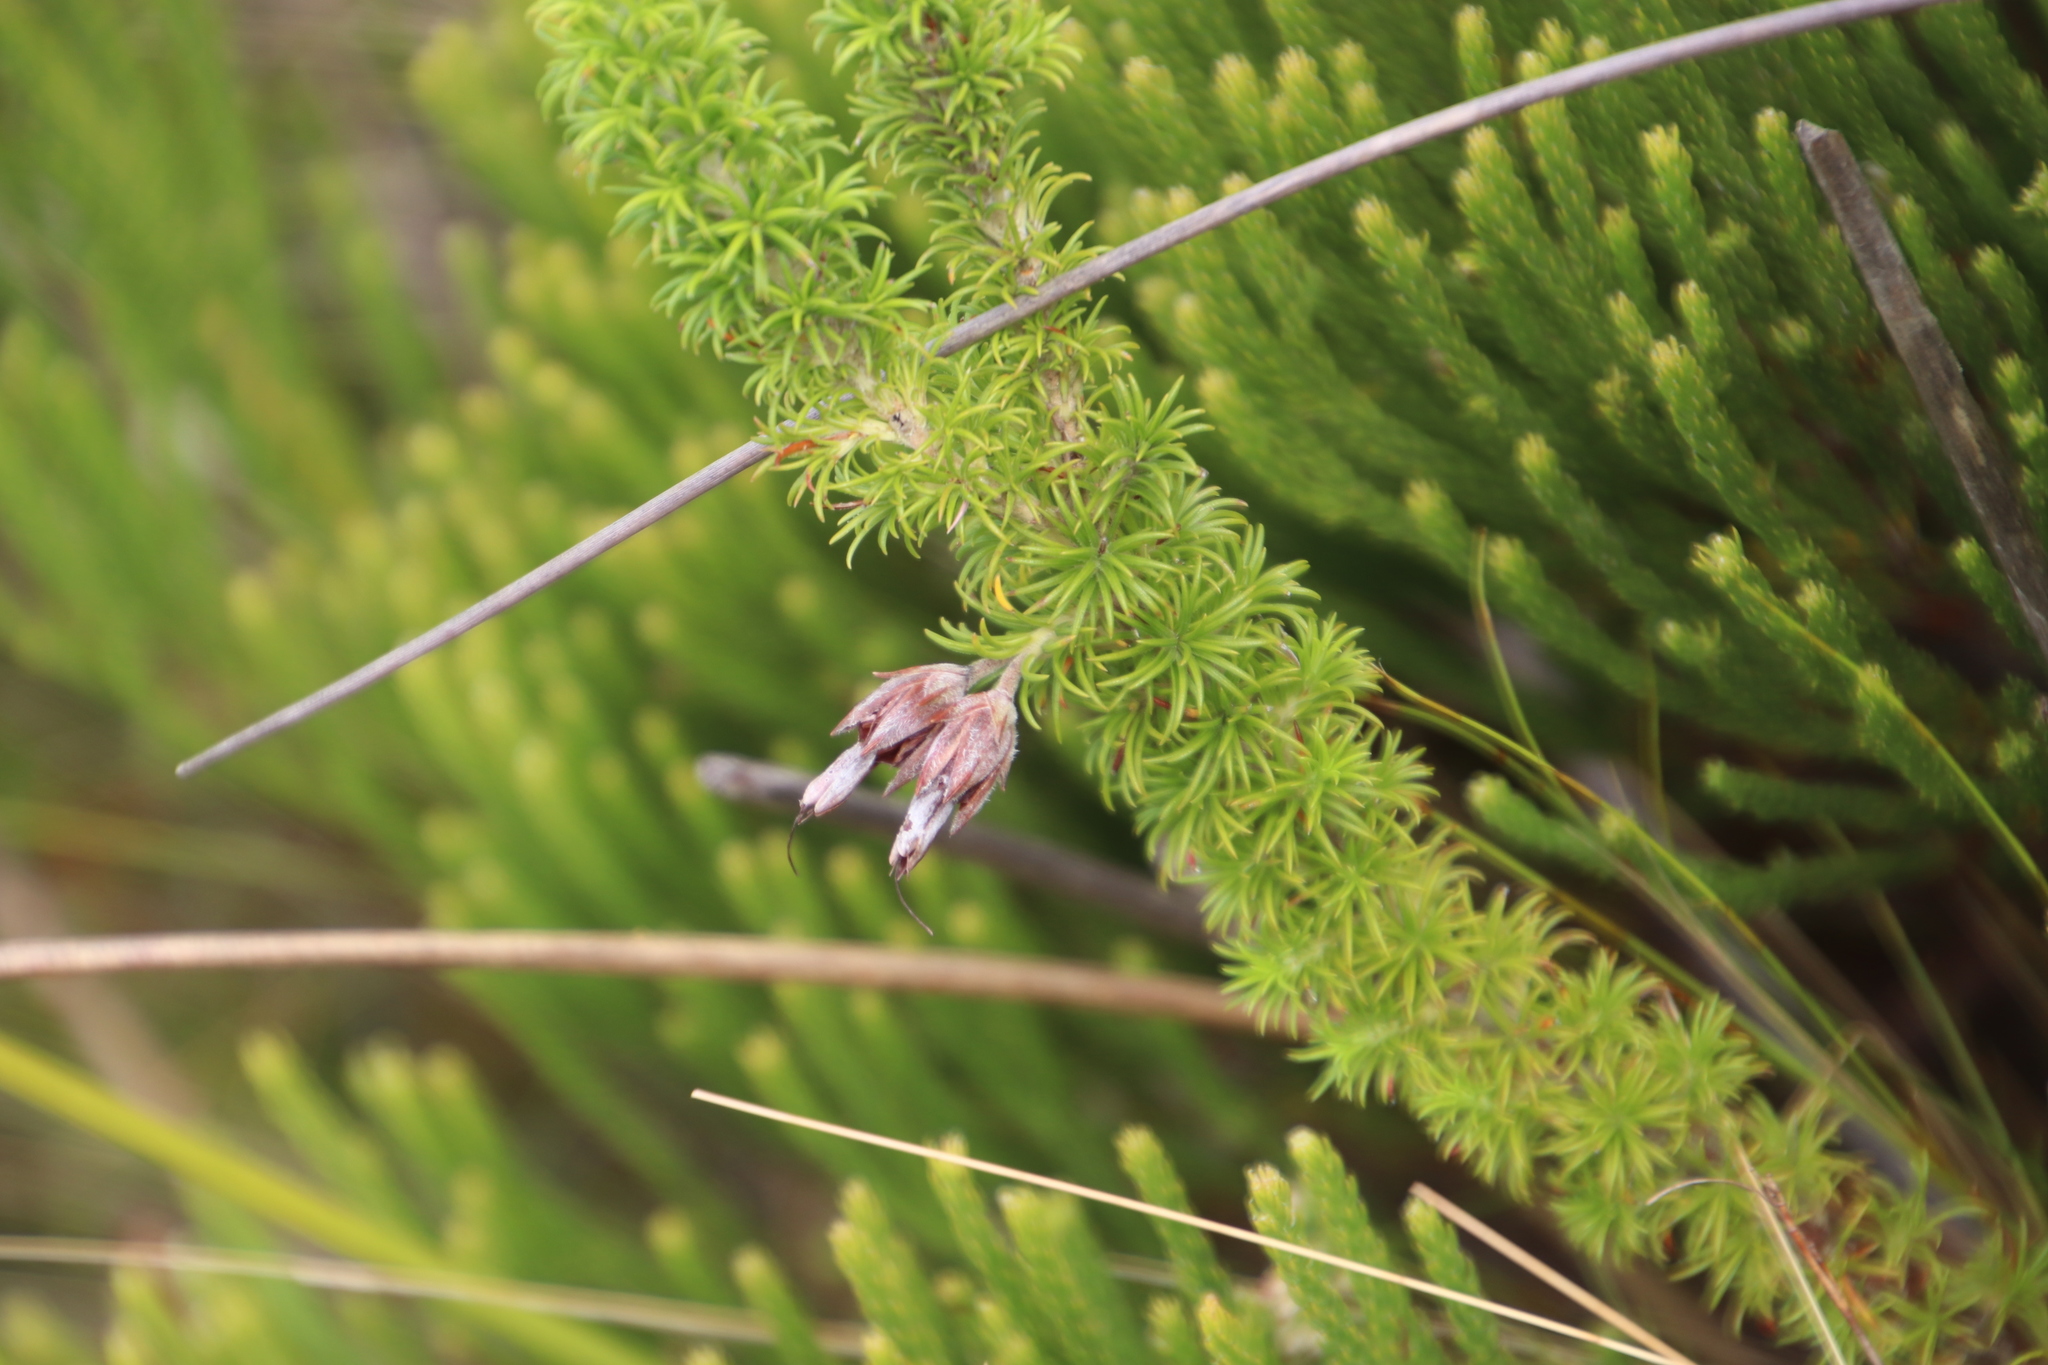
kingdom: Plantae
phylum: Tracheophyta
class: Magnoliopsida
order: Ericales
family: Ericaceae
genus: Erica
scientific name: Erica coccinea
